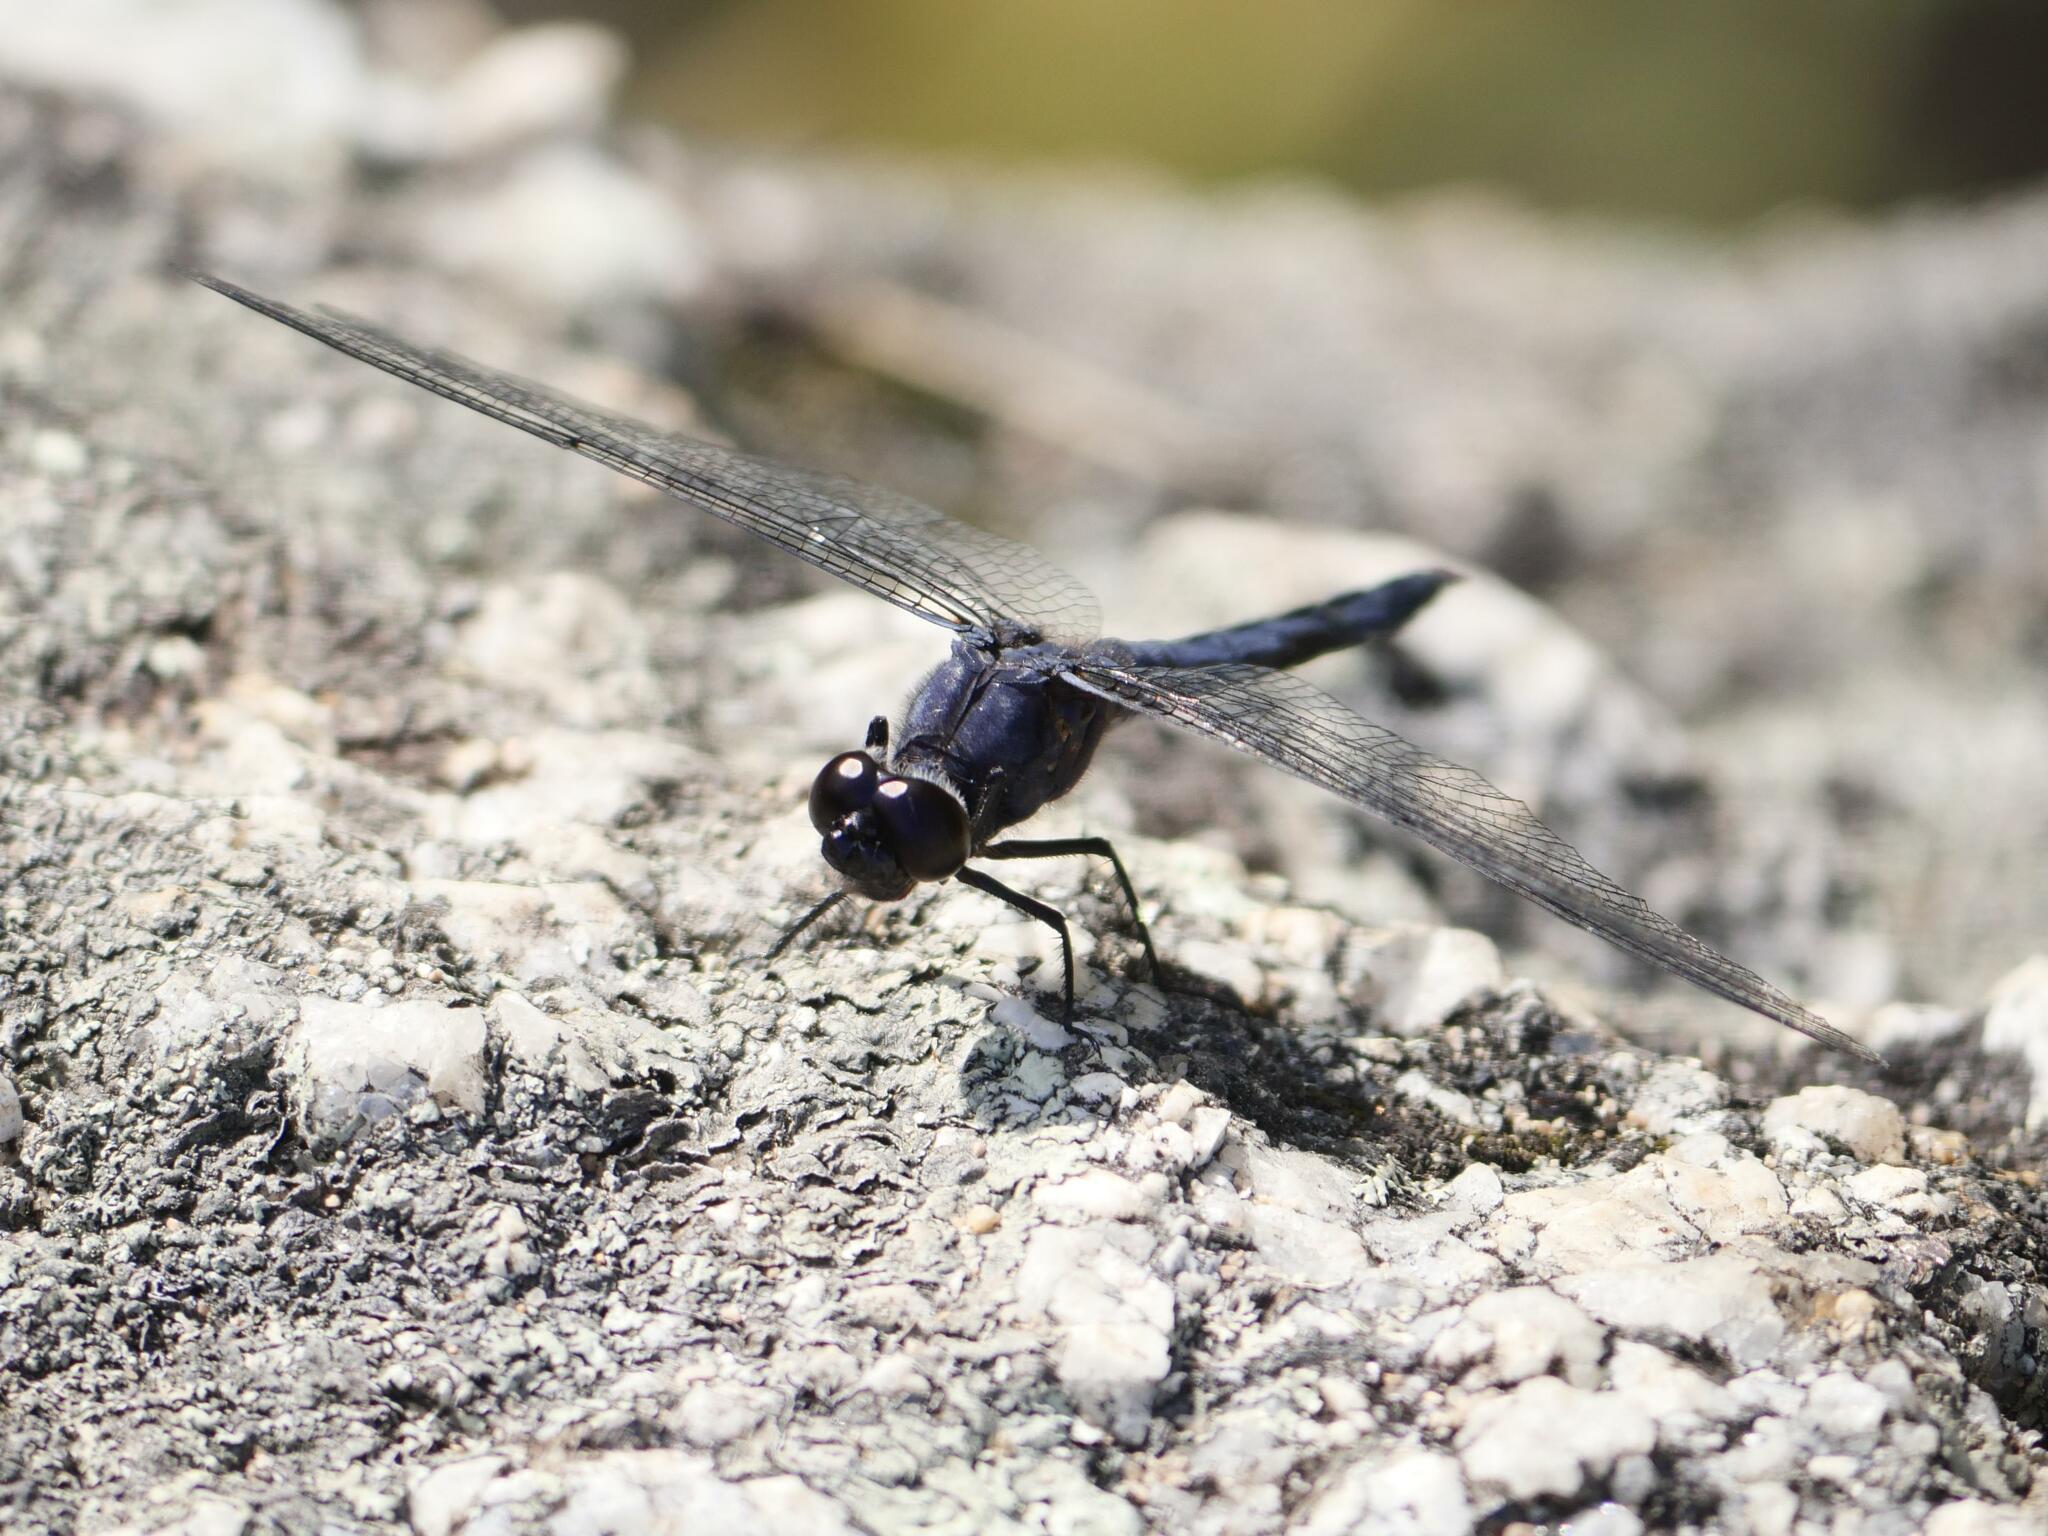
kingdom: Animalia
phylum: Arthropoda
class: Insecta
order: Odonata
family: Libellulidae
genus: Libellula
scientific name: Libellula incesta
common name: Slaty skimmer
